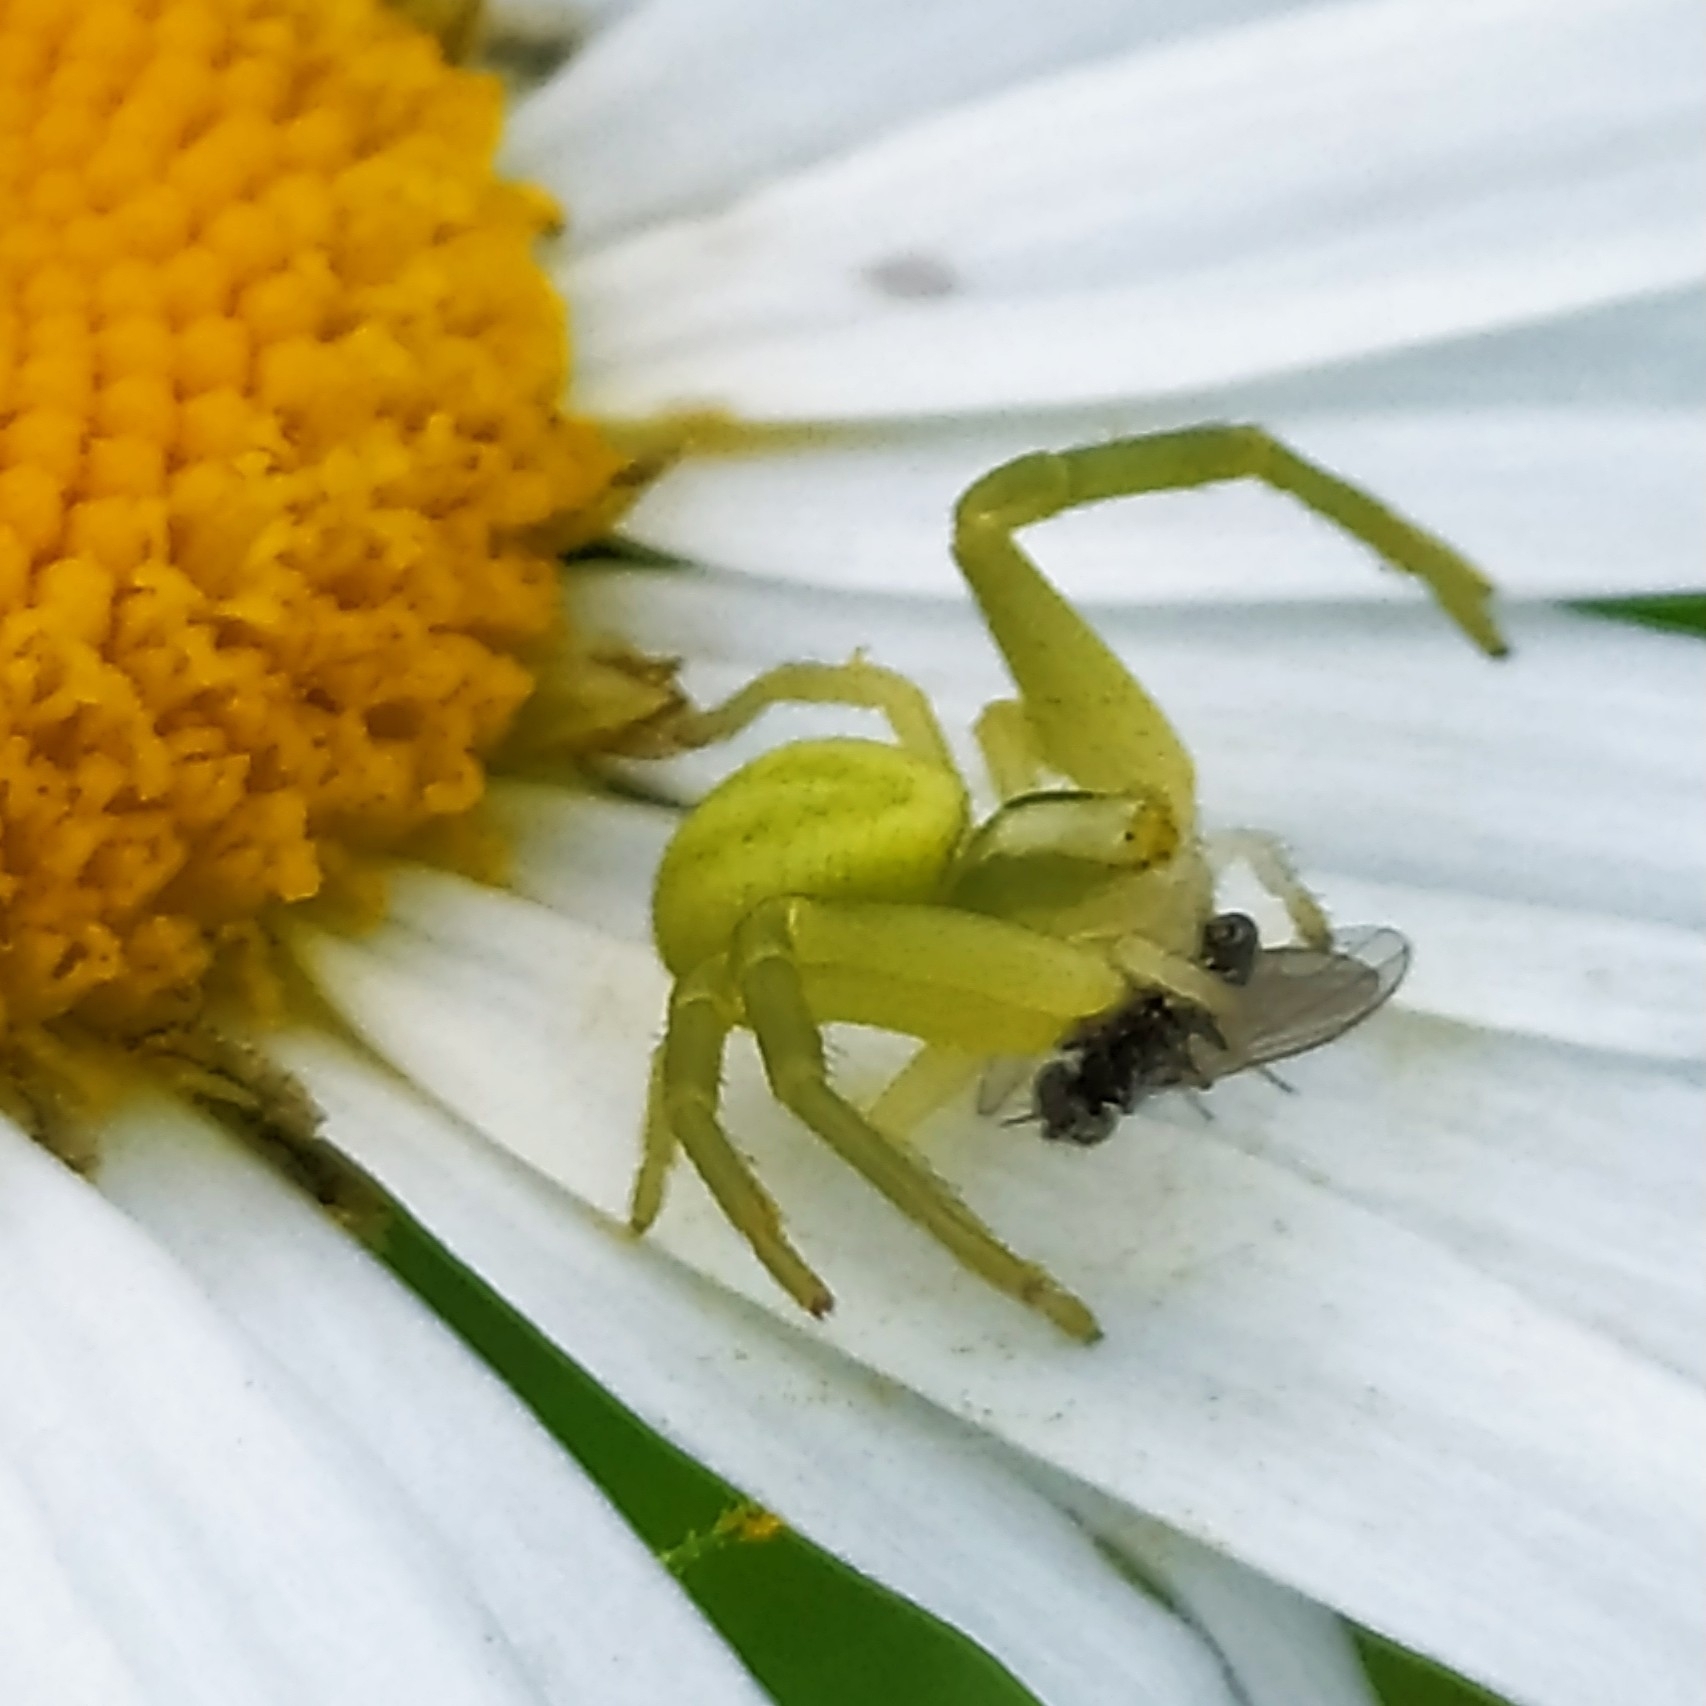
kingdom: Animalia
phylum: Arthropoda
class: Arachnida
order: Araneae
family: Thomisidae
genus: Misumena
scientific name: Misumena vatia
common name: Goldenrod crab spider
